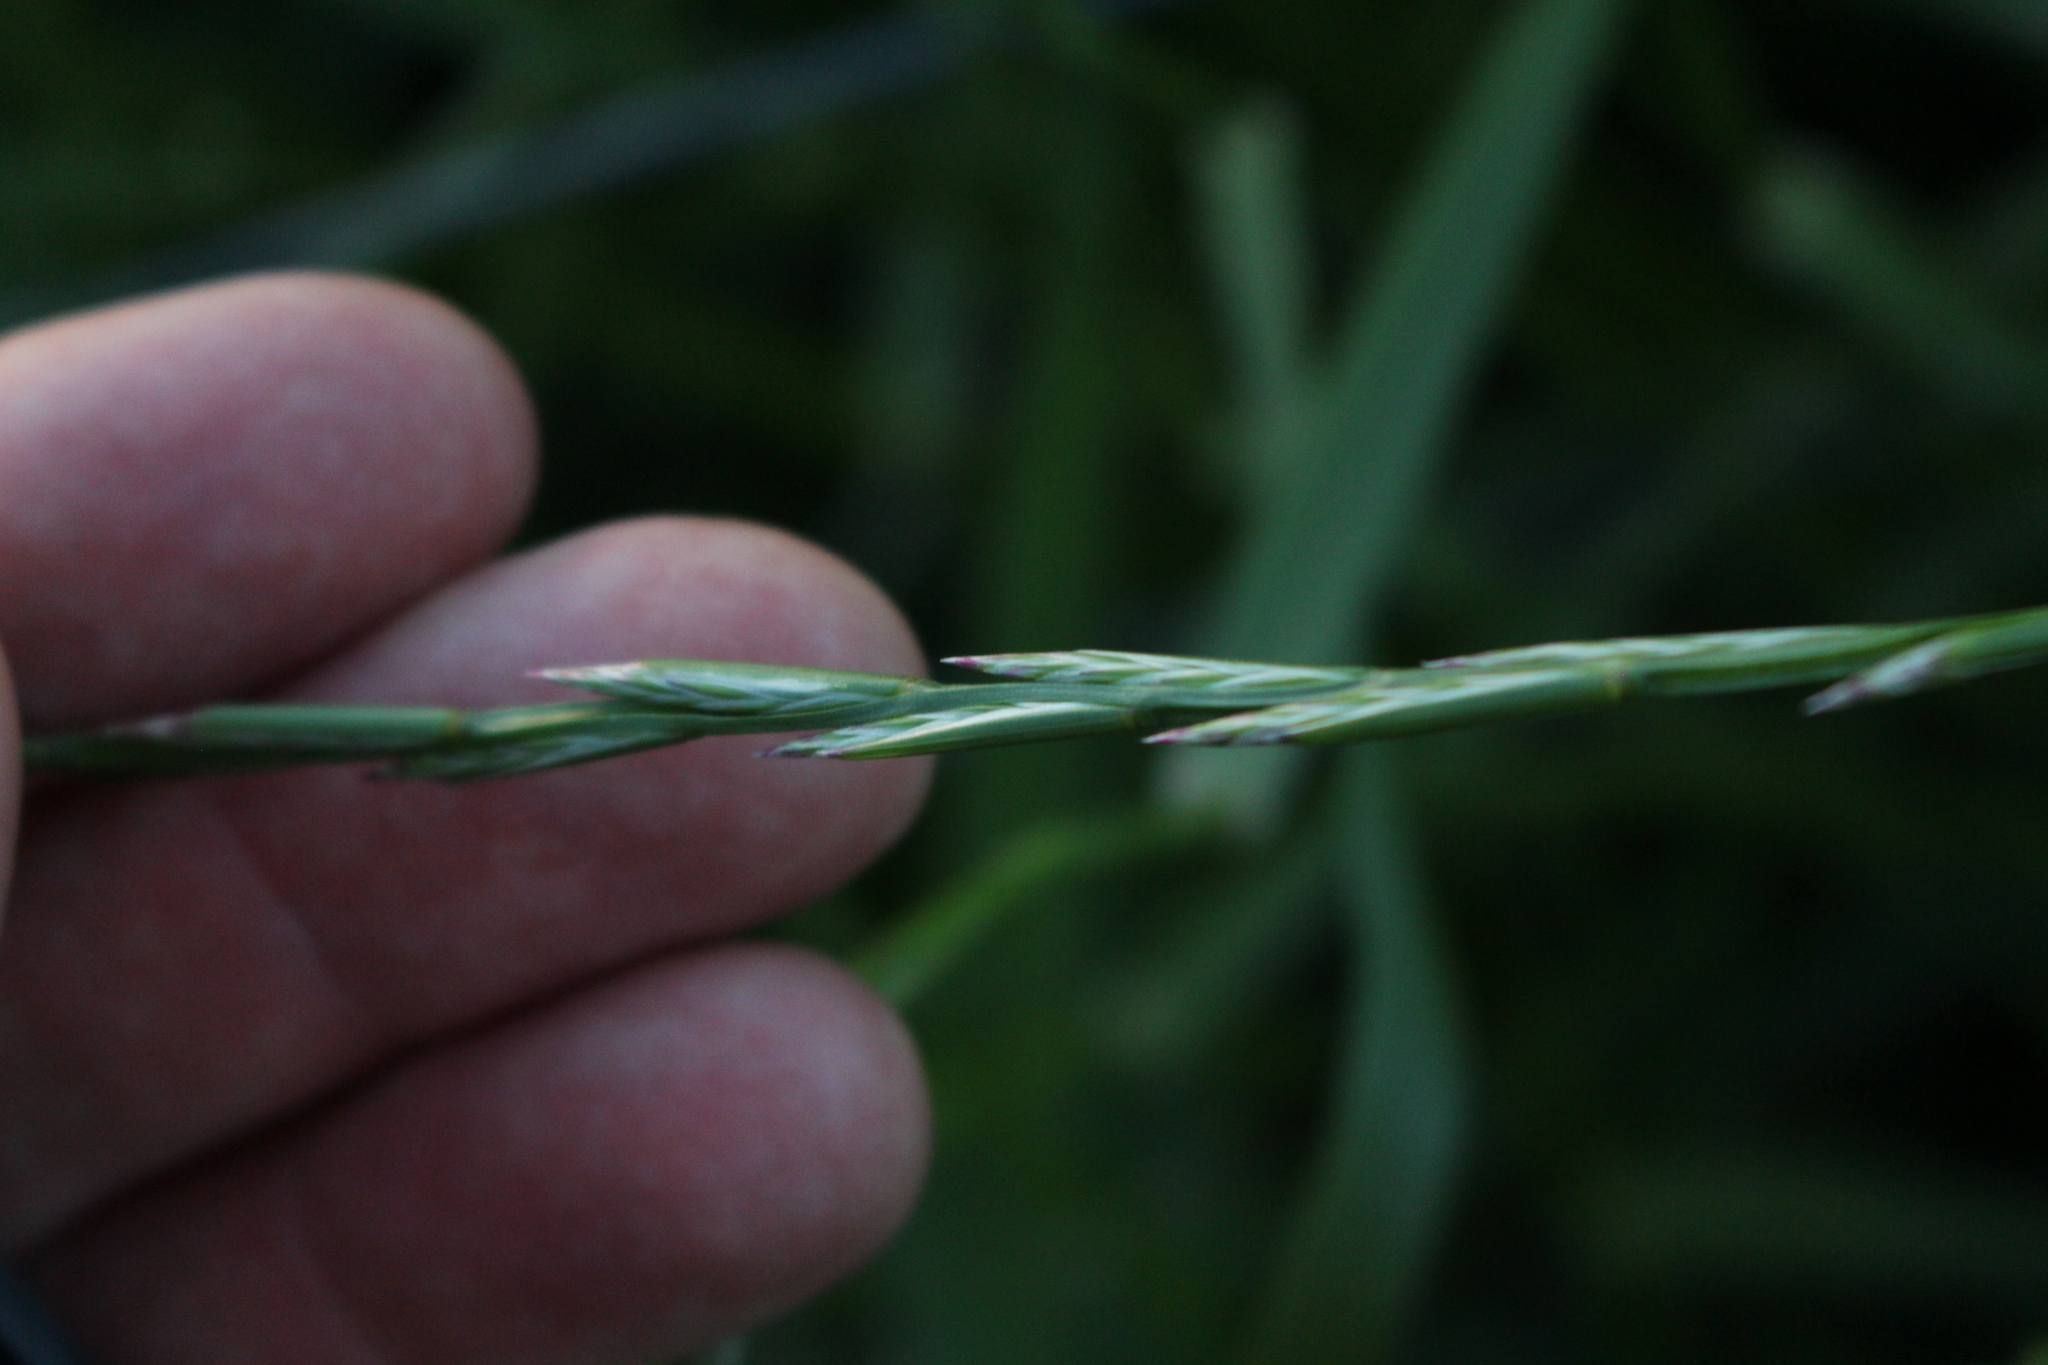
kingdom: Plantae
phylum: Tracheophyta
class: Liliopsida
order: Poales
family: Poaceae
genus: Lolium
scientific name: Lolium perenne
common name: Perennial ryegrass
